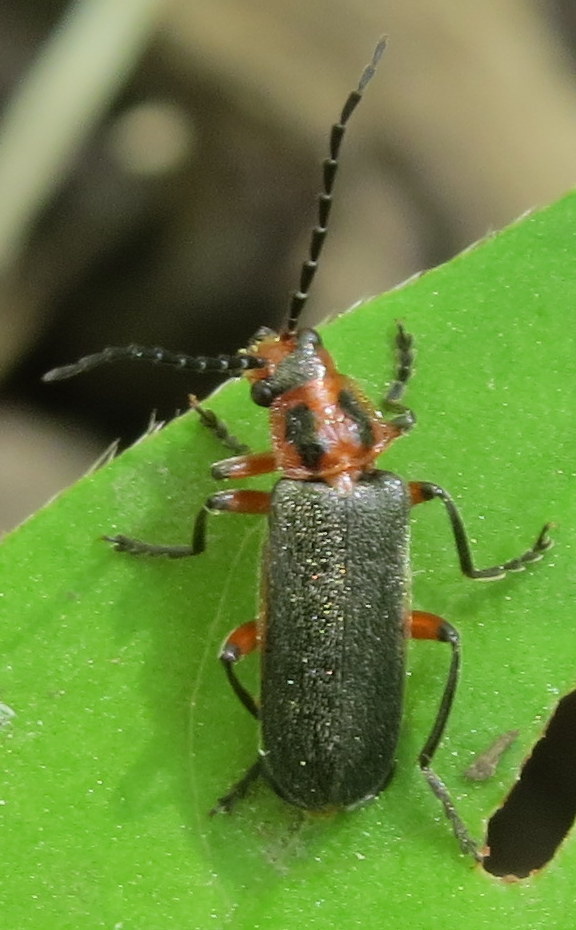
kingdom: Animalia
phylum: Arthropoda
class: Insecta
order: Coleoptera
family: Cantharidae
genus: Atalantycha
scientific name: Atalantycha bilineata
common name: Two-lined leatherwing
